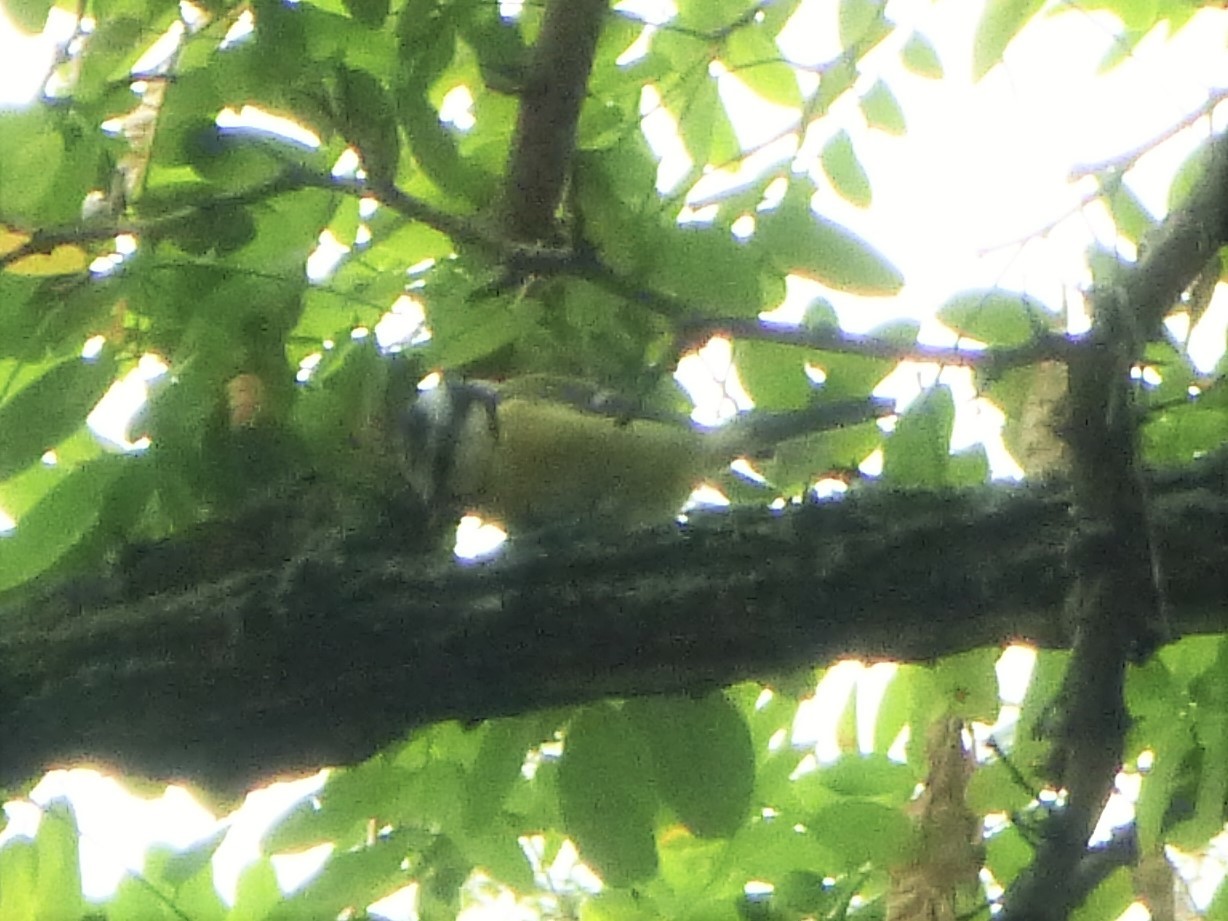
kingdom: Animalia
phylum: Chordata
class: Aves
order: Passeriformes
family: Paridae
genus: Cyanistes
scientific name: Cyanistes caeruleus
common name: Eurasian blue tit
